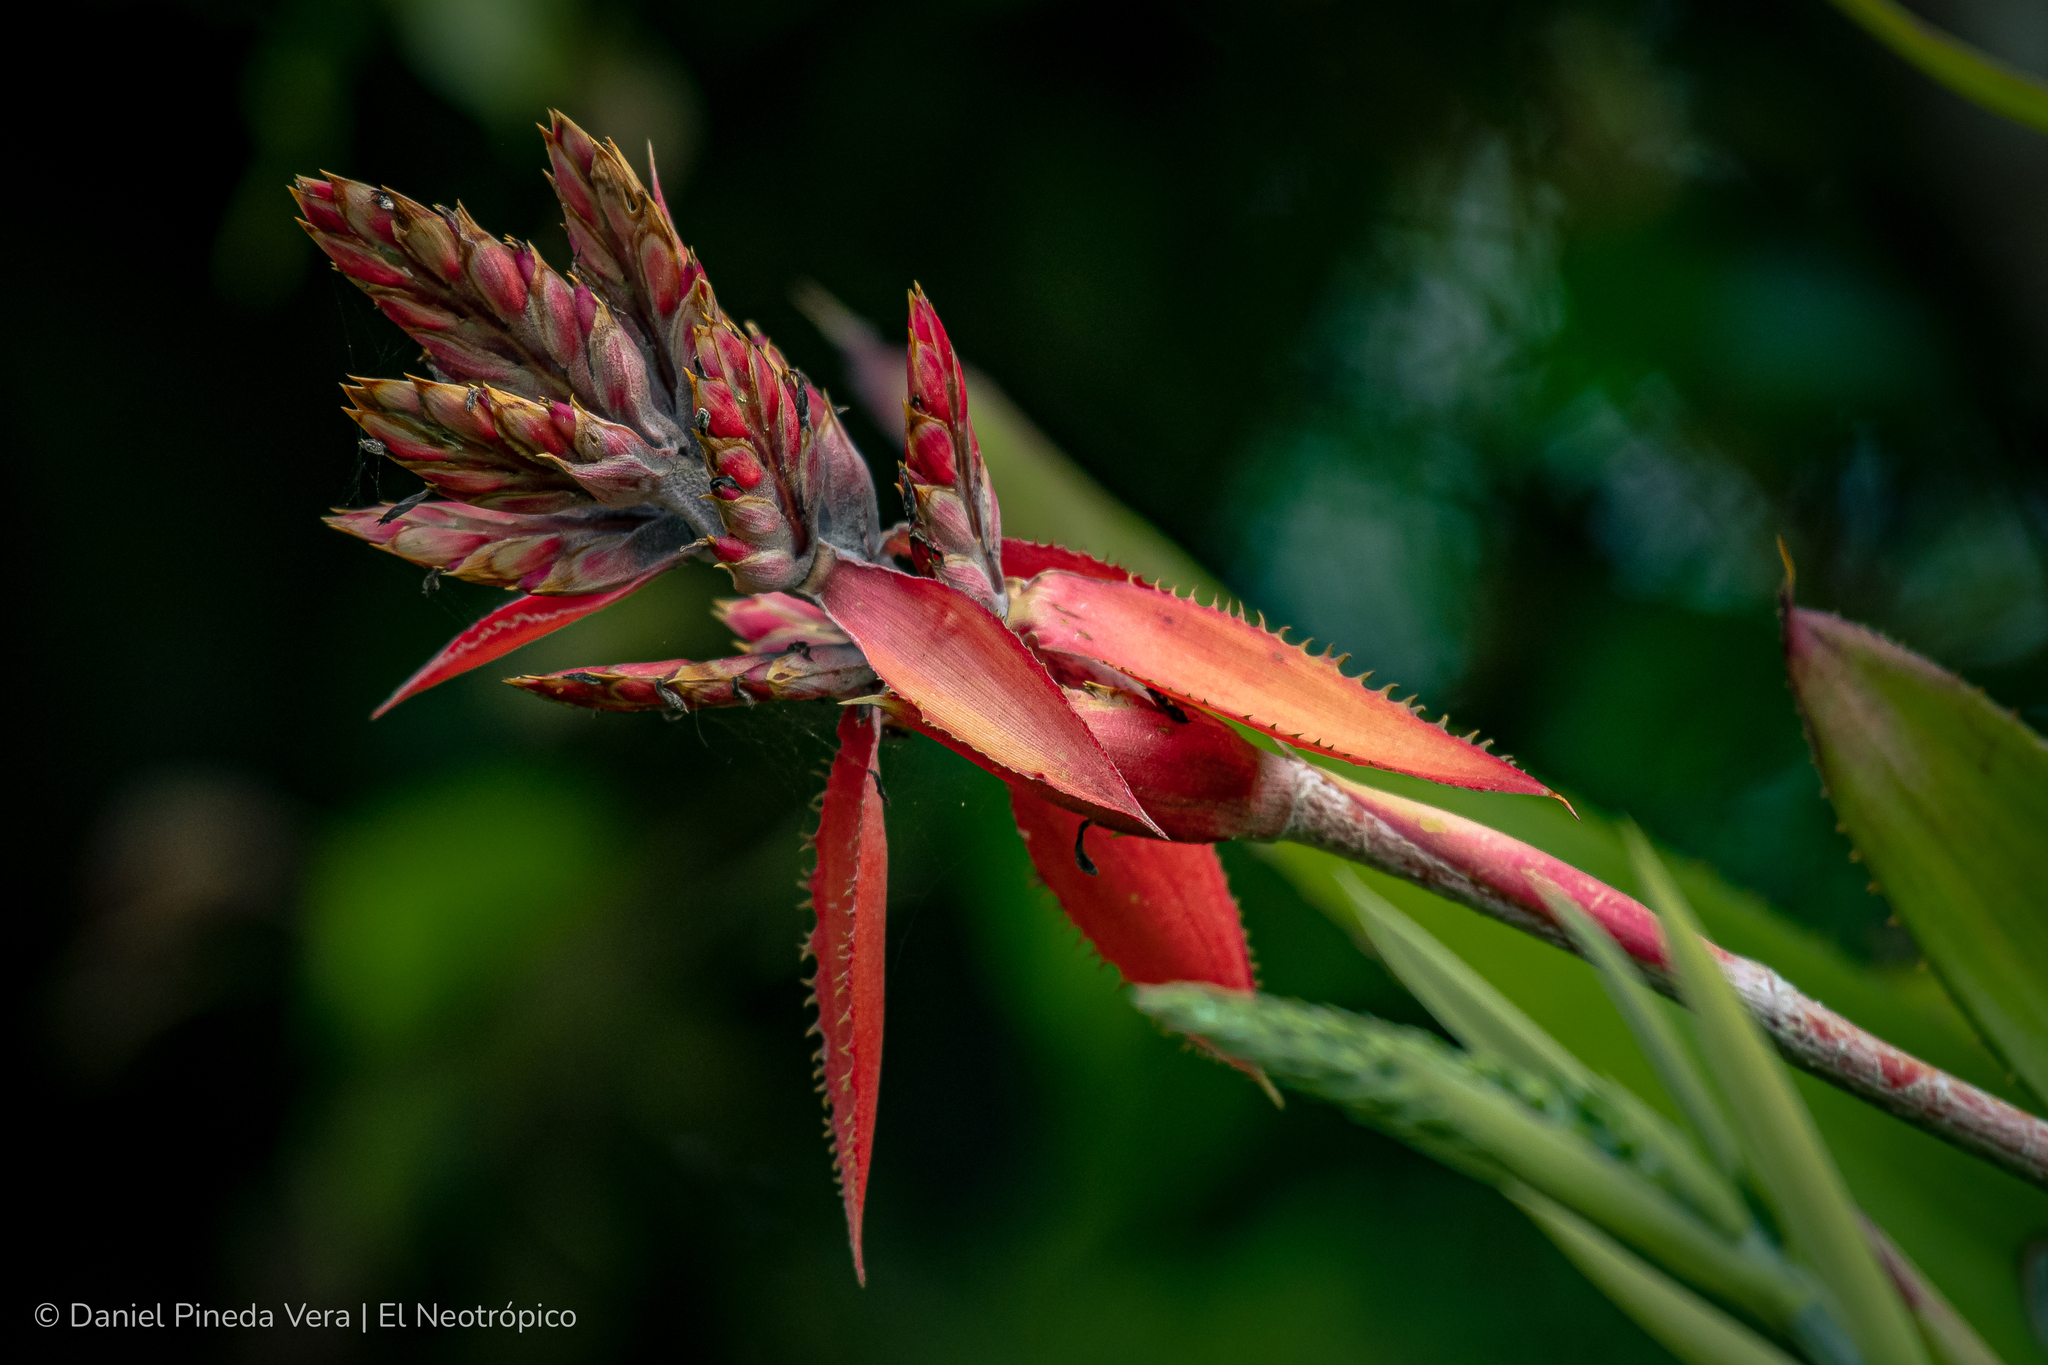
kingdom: Plantae
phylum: Tracheophyta
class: Liliopsida
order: Poales
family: Bromeliaceae
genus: Aechmea
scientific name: Aechmea tillandsioides
